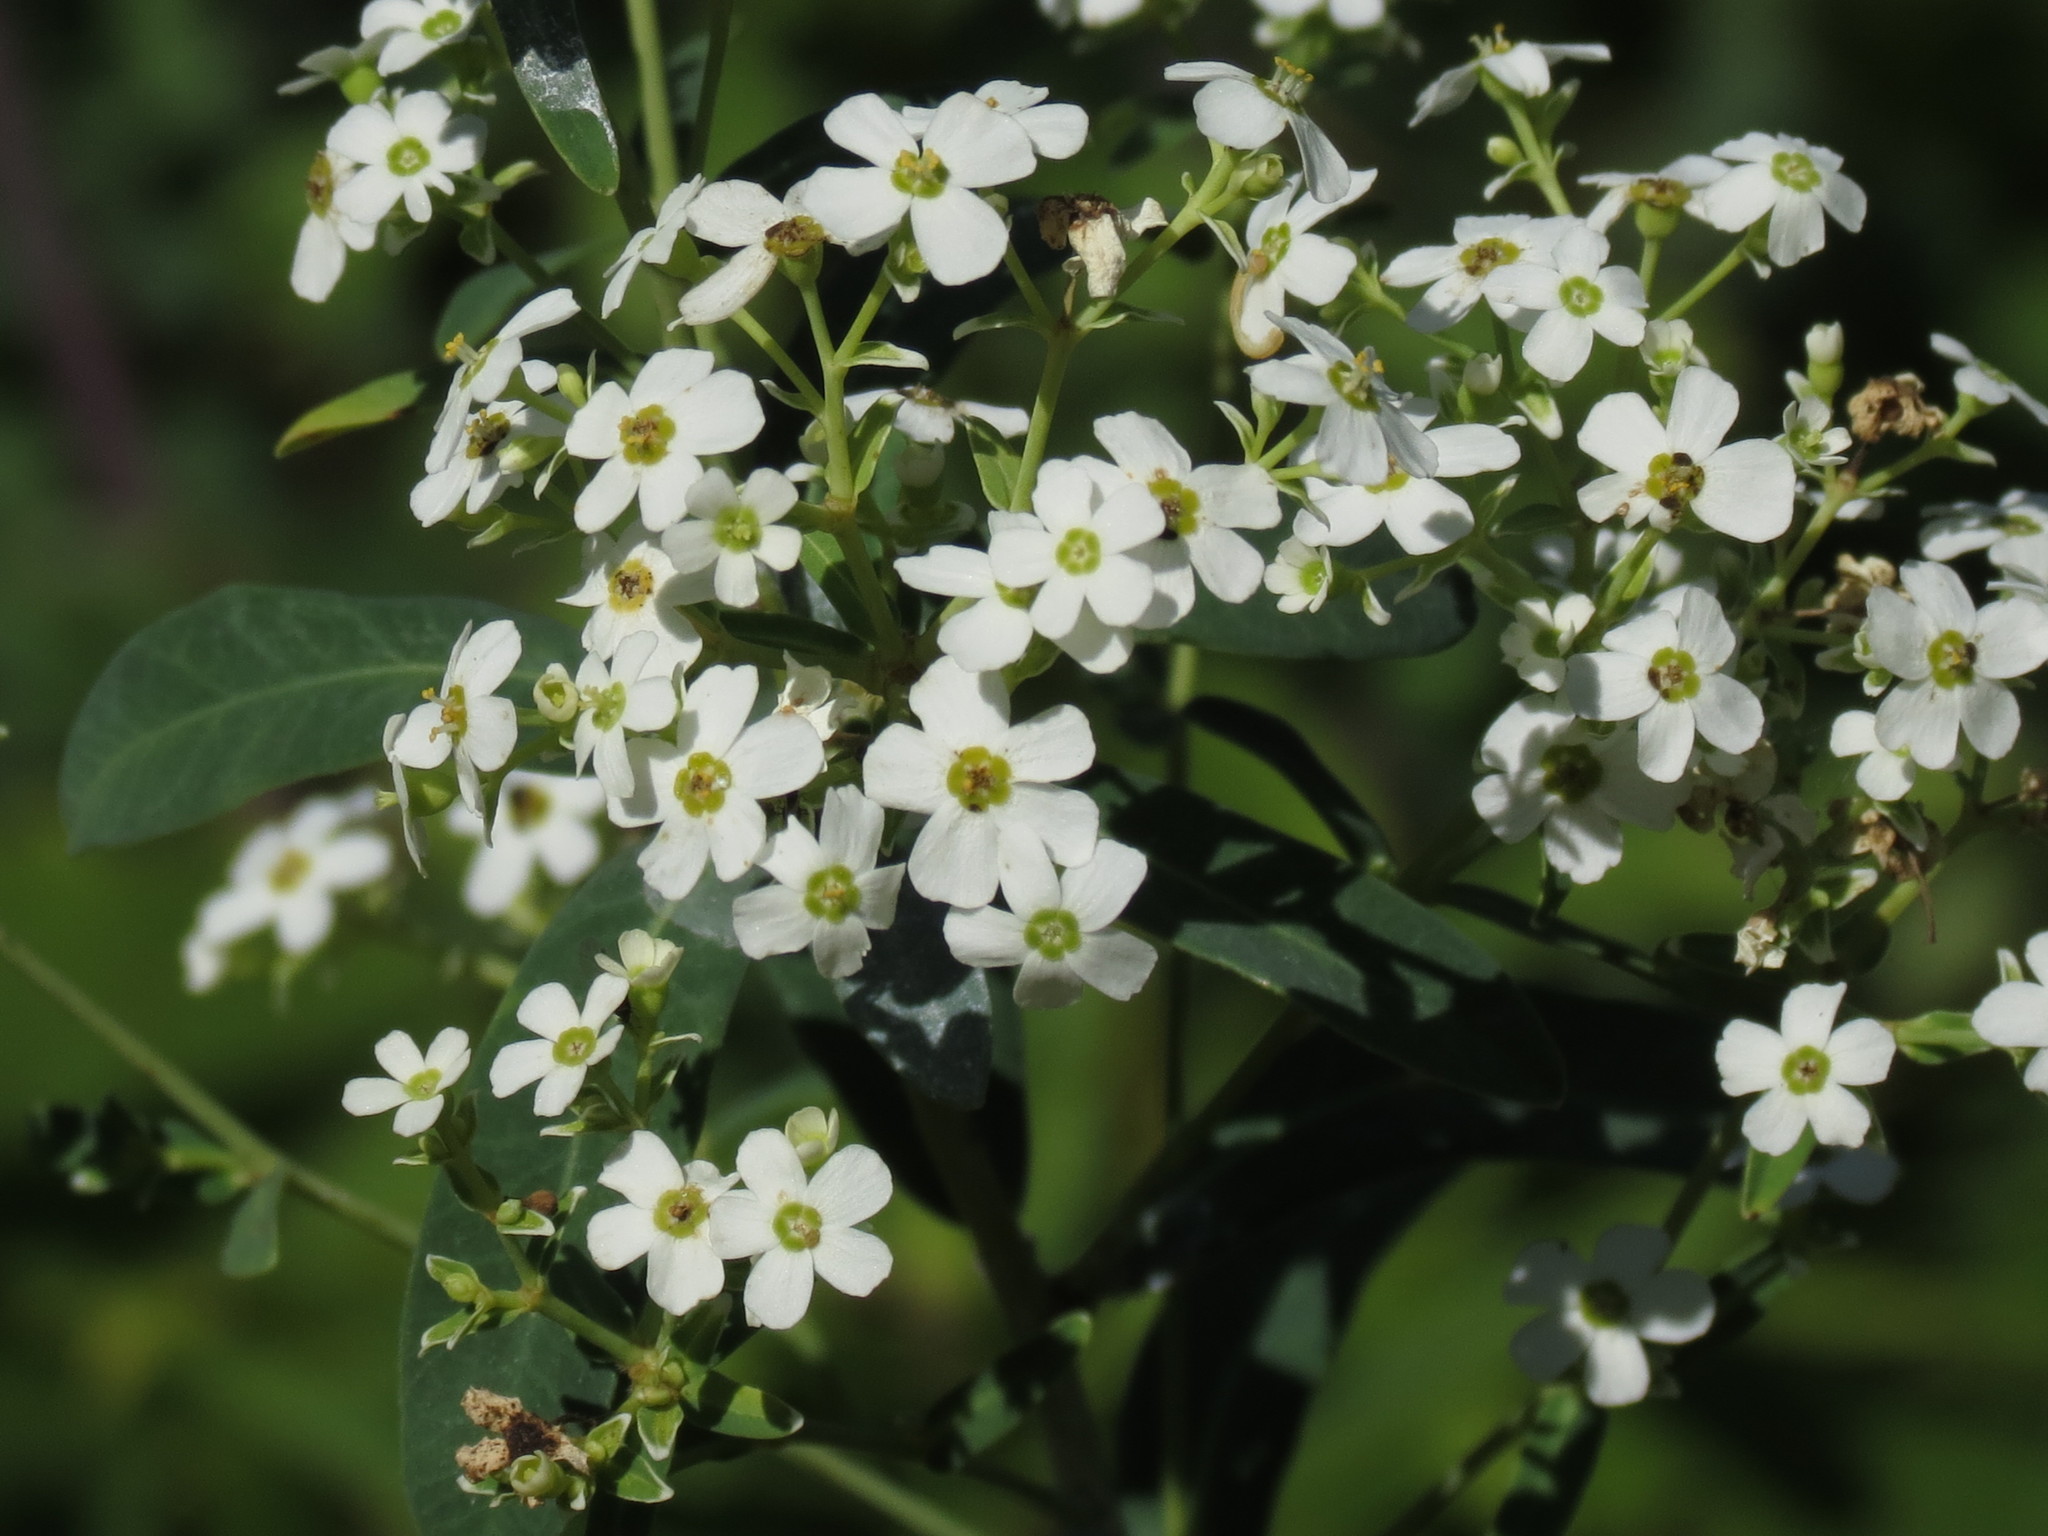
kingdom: Plantae
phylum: Tracheophyta
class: Magnoliopsida
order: Malpighiales
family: Euphorbiaceae
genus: Euphorbia
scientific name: Euphorbia corollata
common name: Flowering spurge
